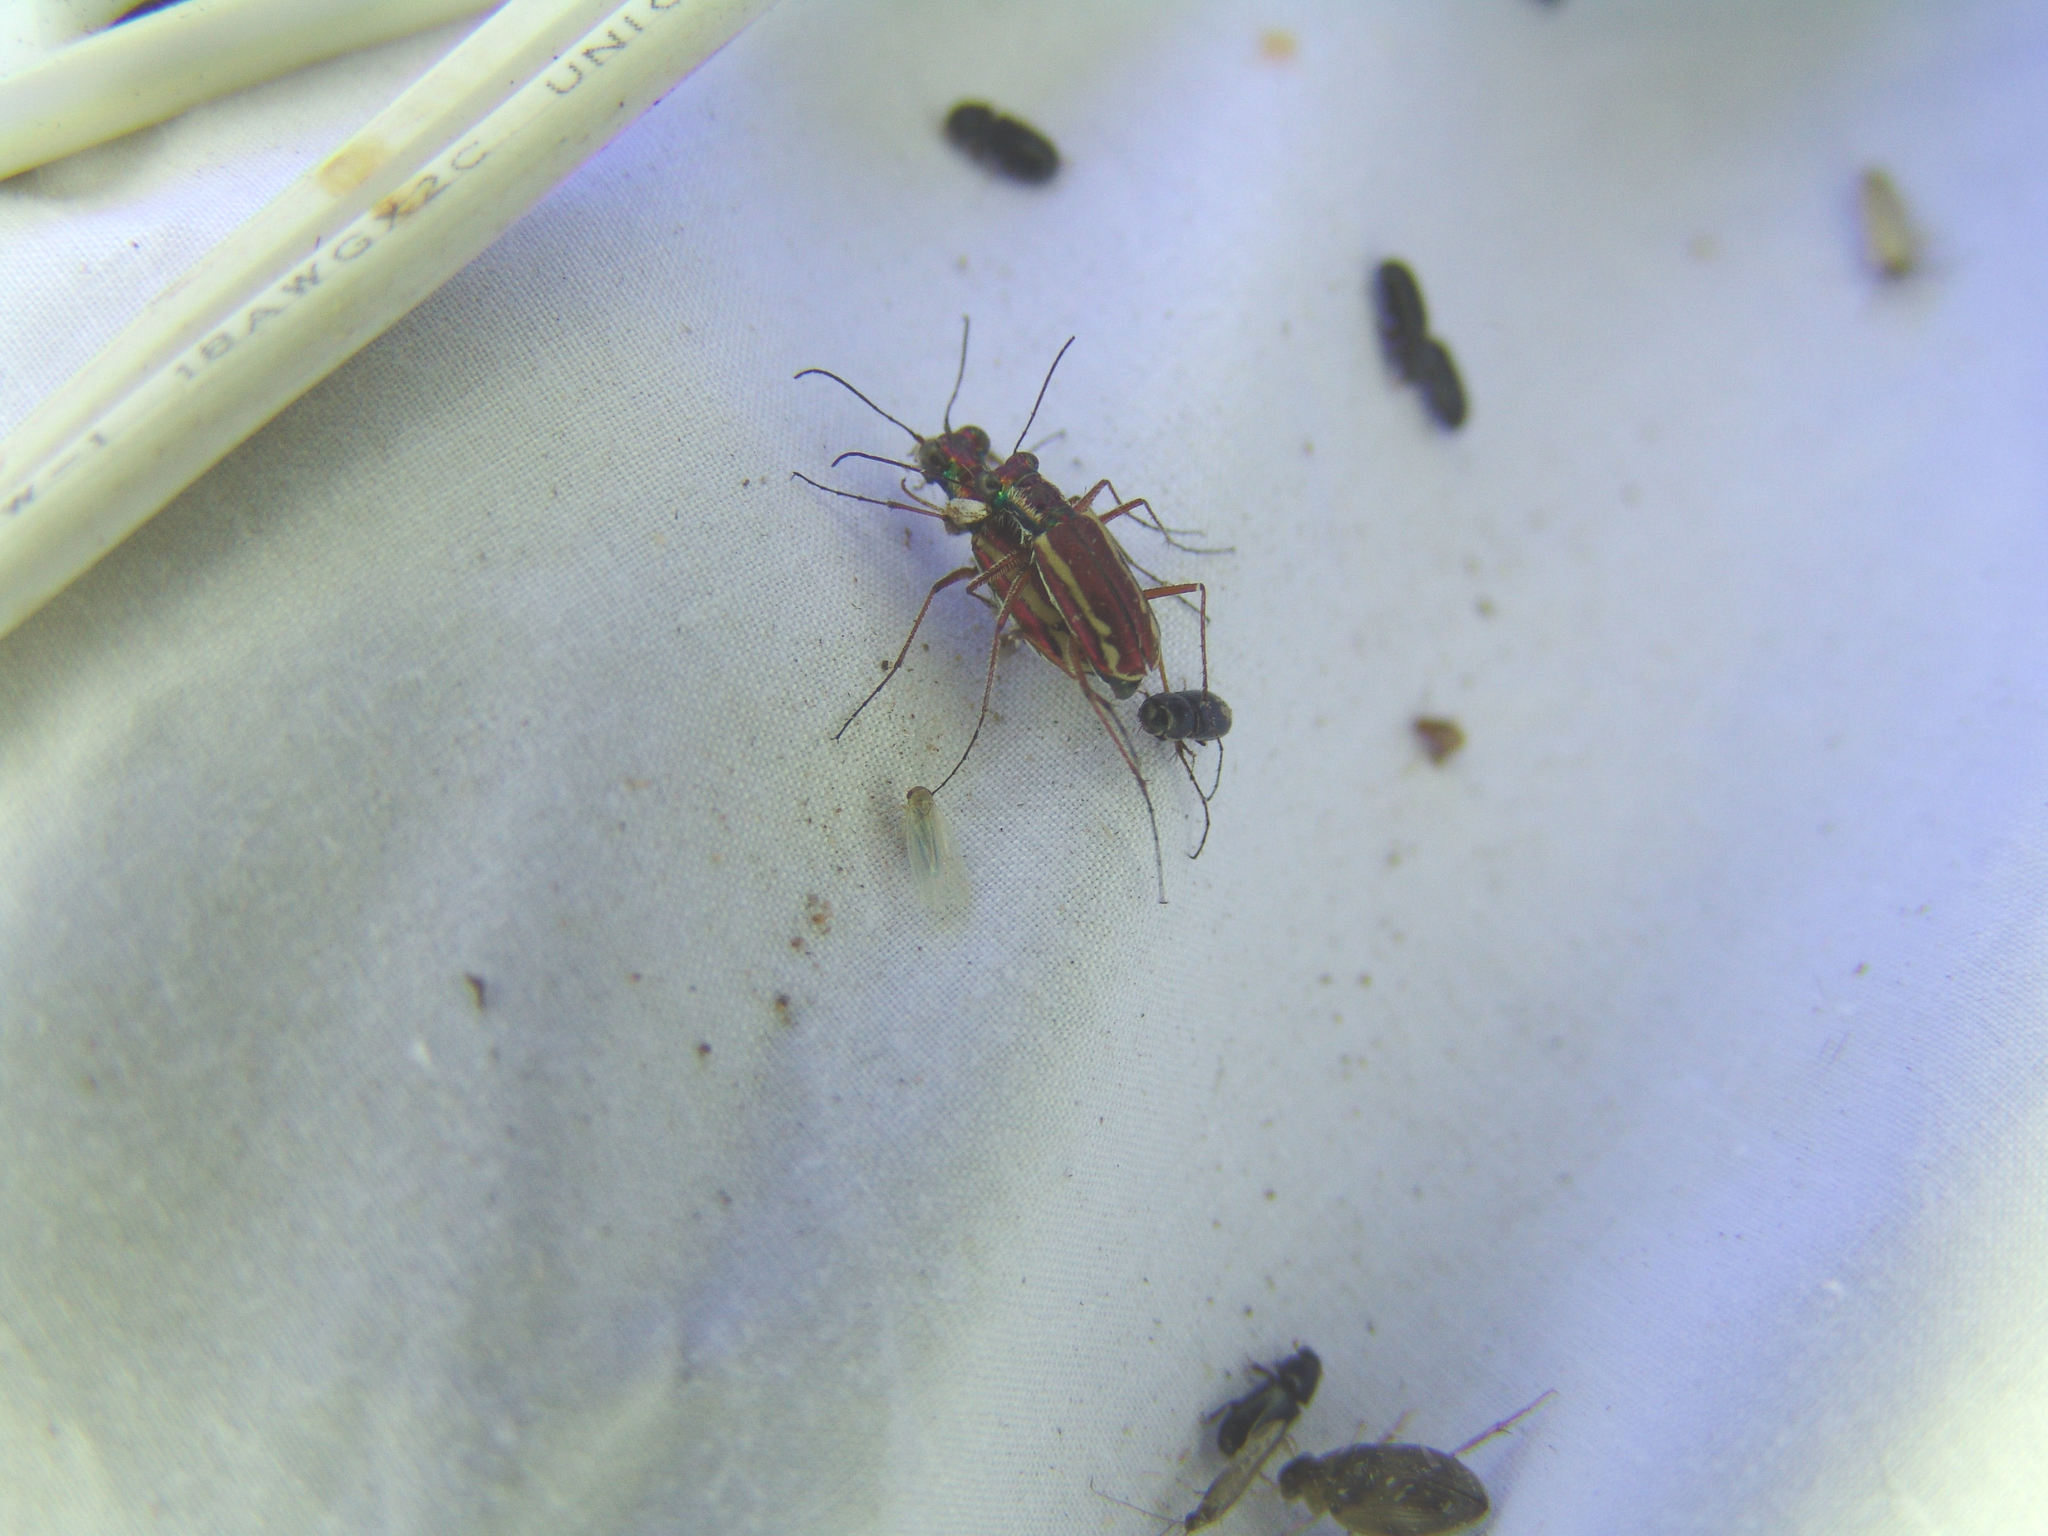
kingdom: Animalia
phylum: Arthropoda
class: Insecta
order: Coleoptera
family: Carabidae
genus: Cylindera
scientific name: Cylindera lemniscata
